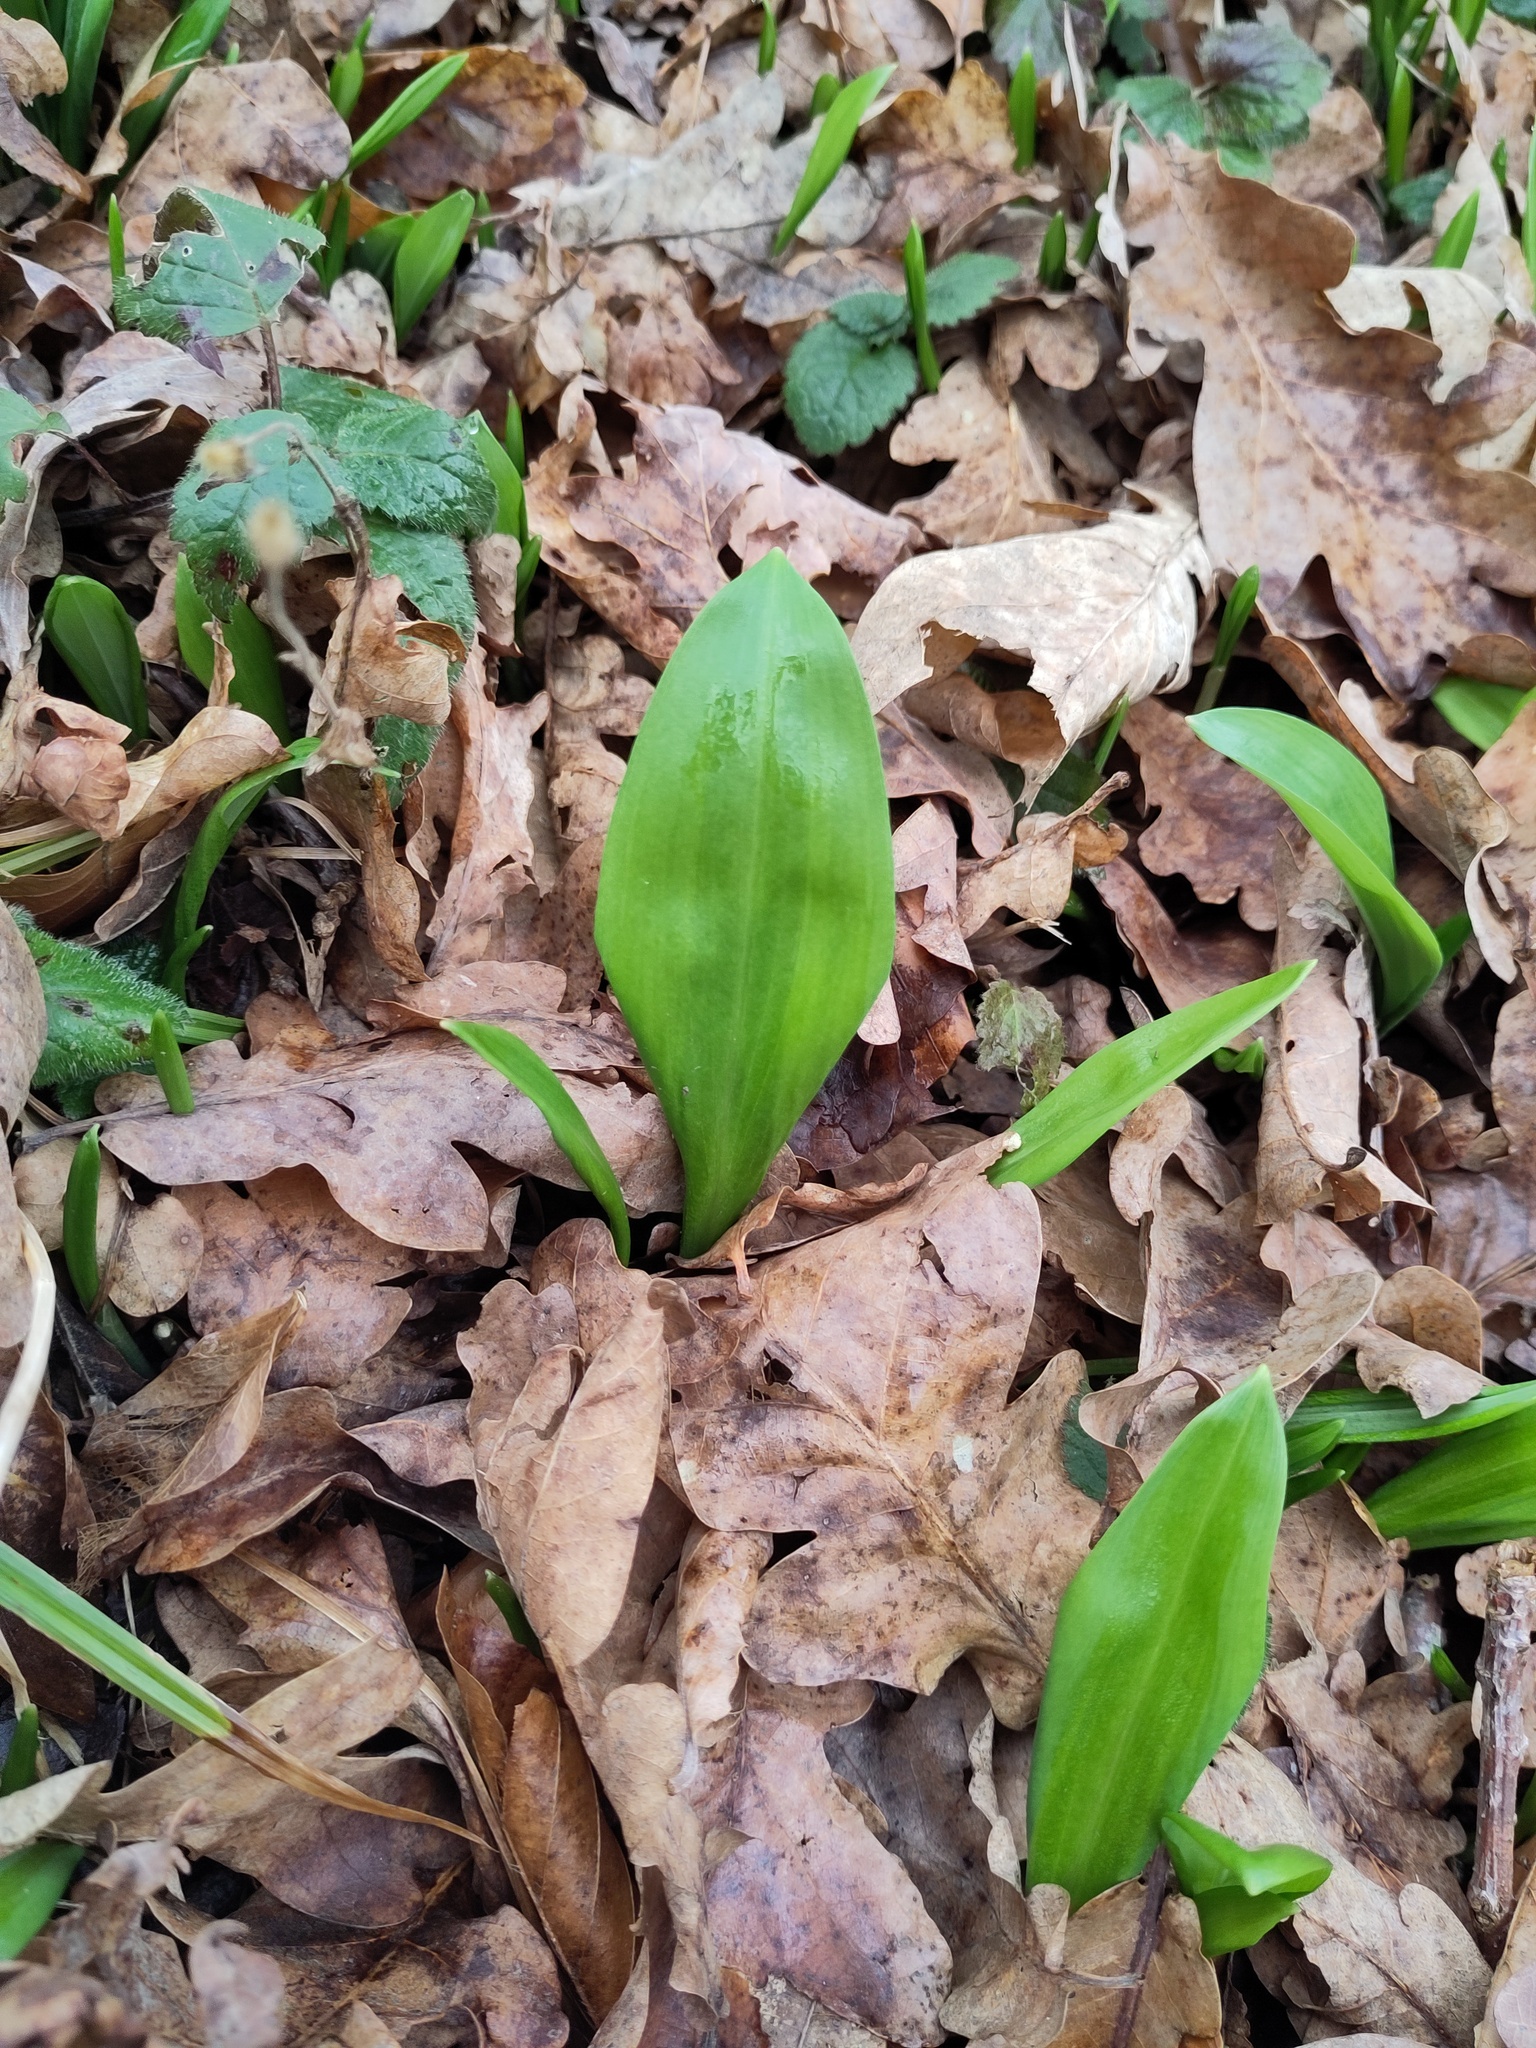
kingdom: Plantae
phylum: Tracheophyta
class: Liliopsida
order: Asparagales
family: Amaryllidaceae
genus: Allium
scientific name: Allium ursinum
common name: Ramsons
